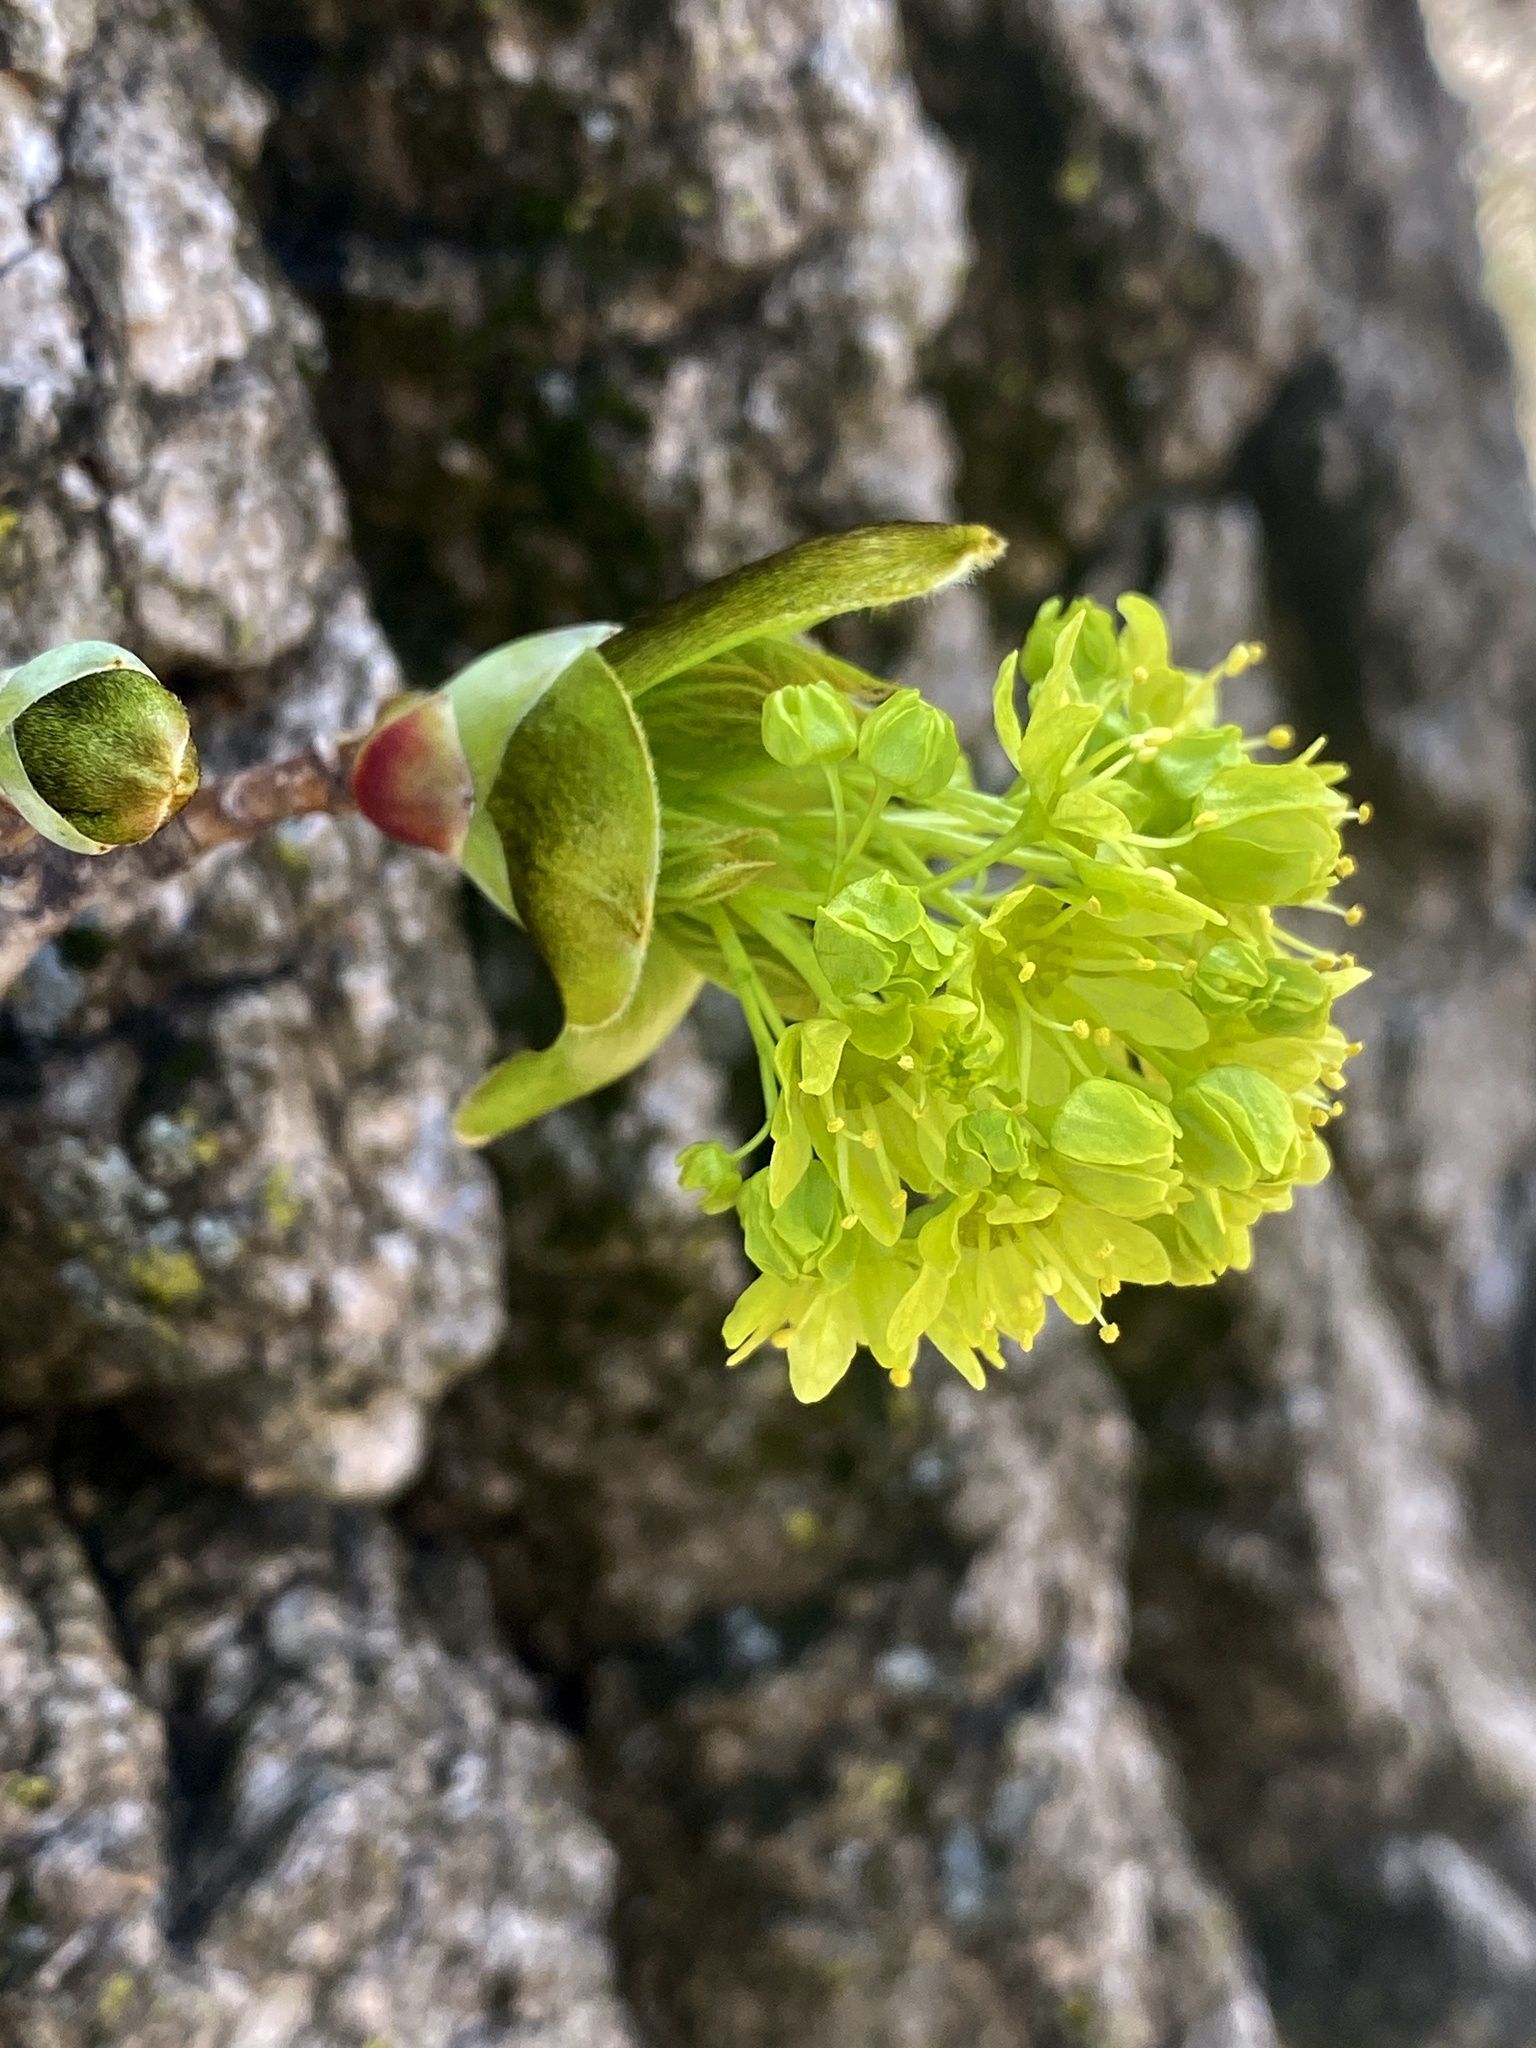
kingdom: Plantae
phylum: Tracheophyta
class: Magnoliopsida
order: Sapindales
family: Sapindaceae
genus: Acer
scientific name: Acer platanoides
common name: Norway maple
